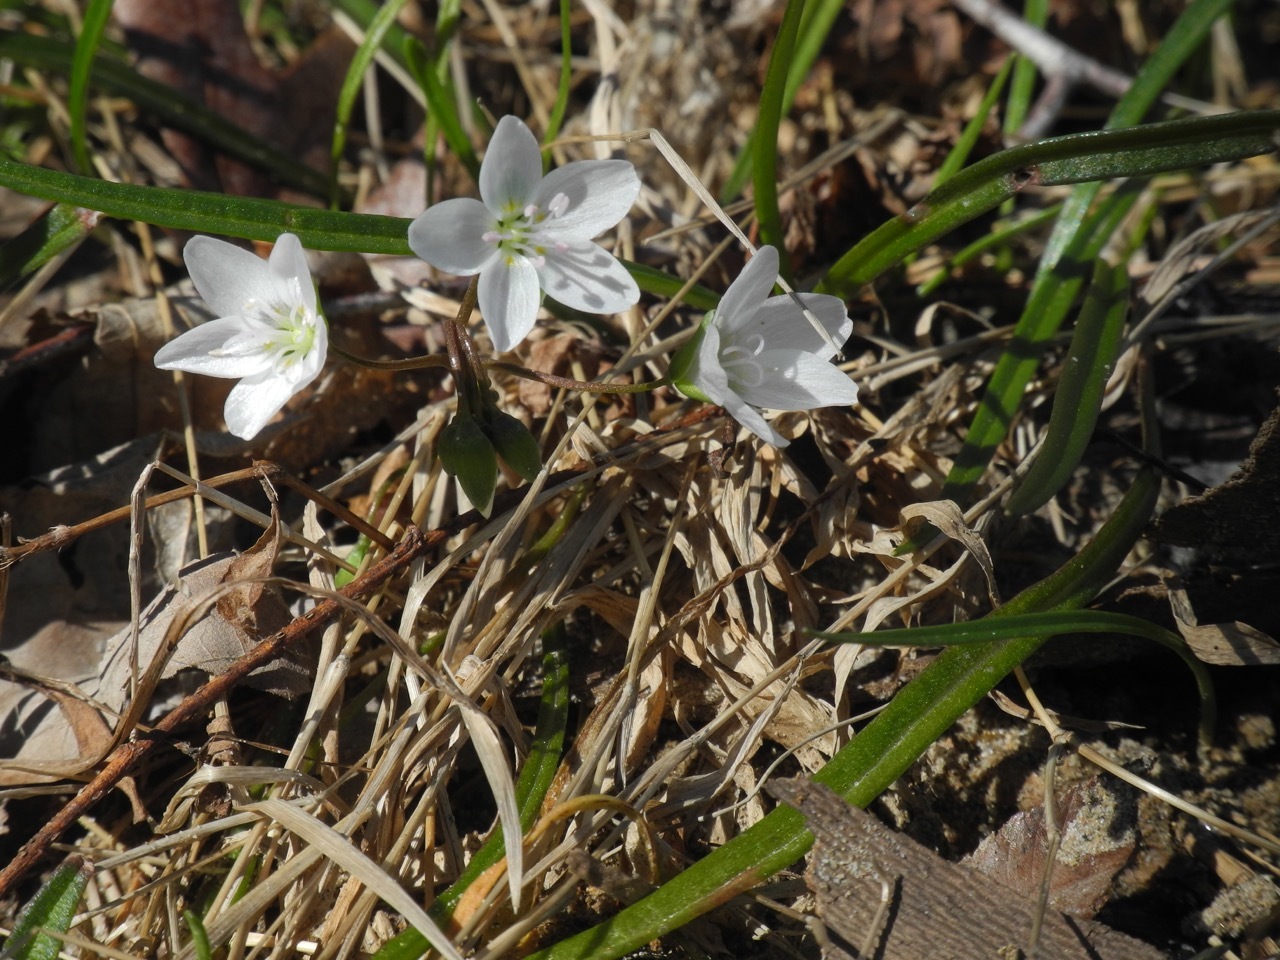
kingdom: Plantae
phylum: Tracheophyta
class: Magnoliopsida
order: Caryophyllales
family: Montiaceae
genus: Claytonia
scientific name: Claytonia virginica
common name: Virginia springbeauty
